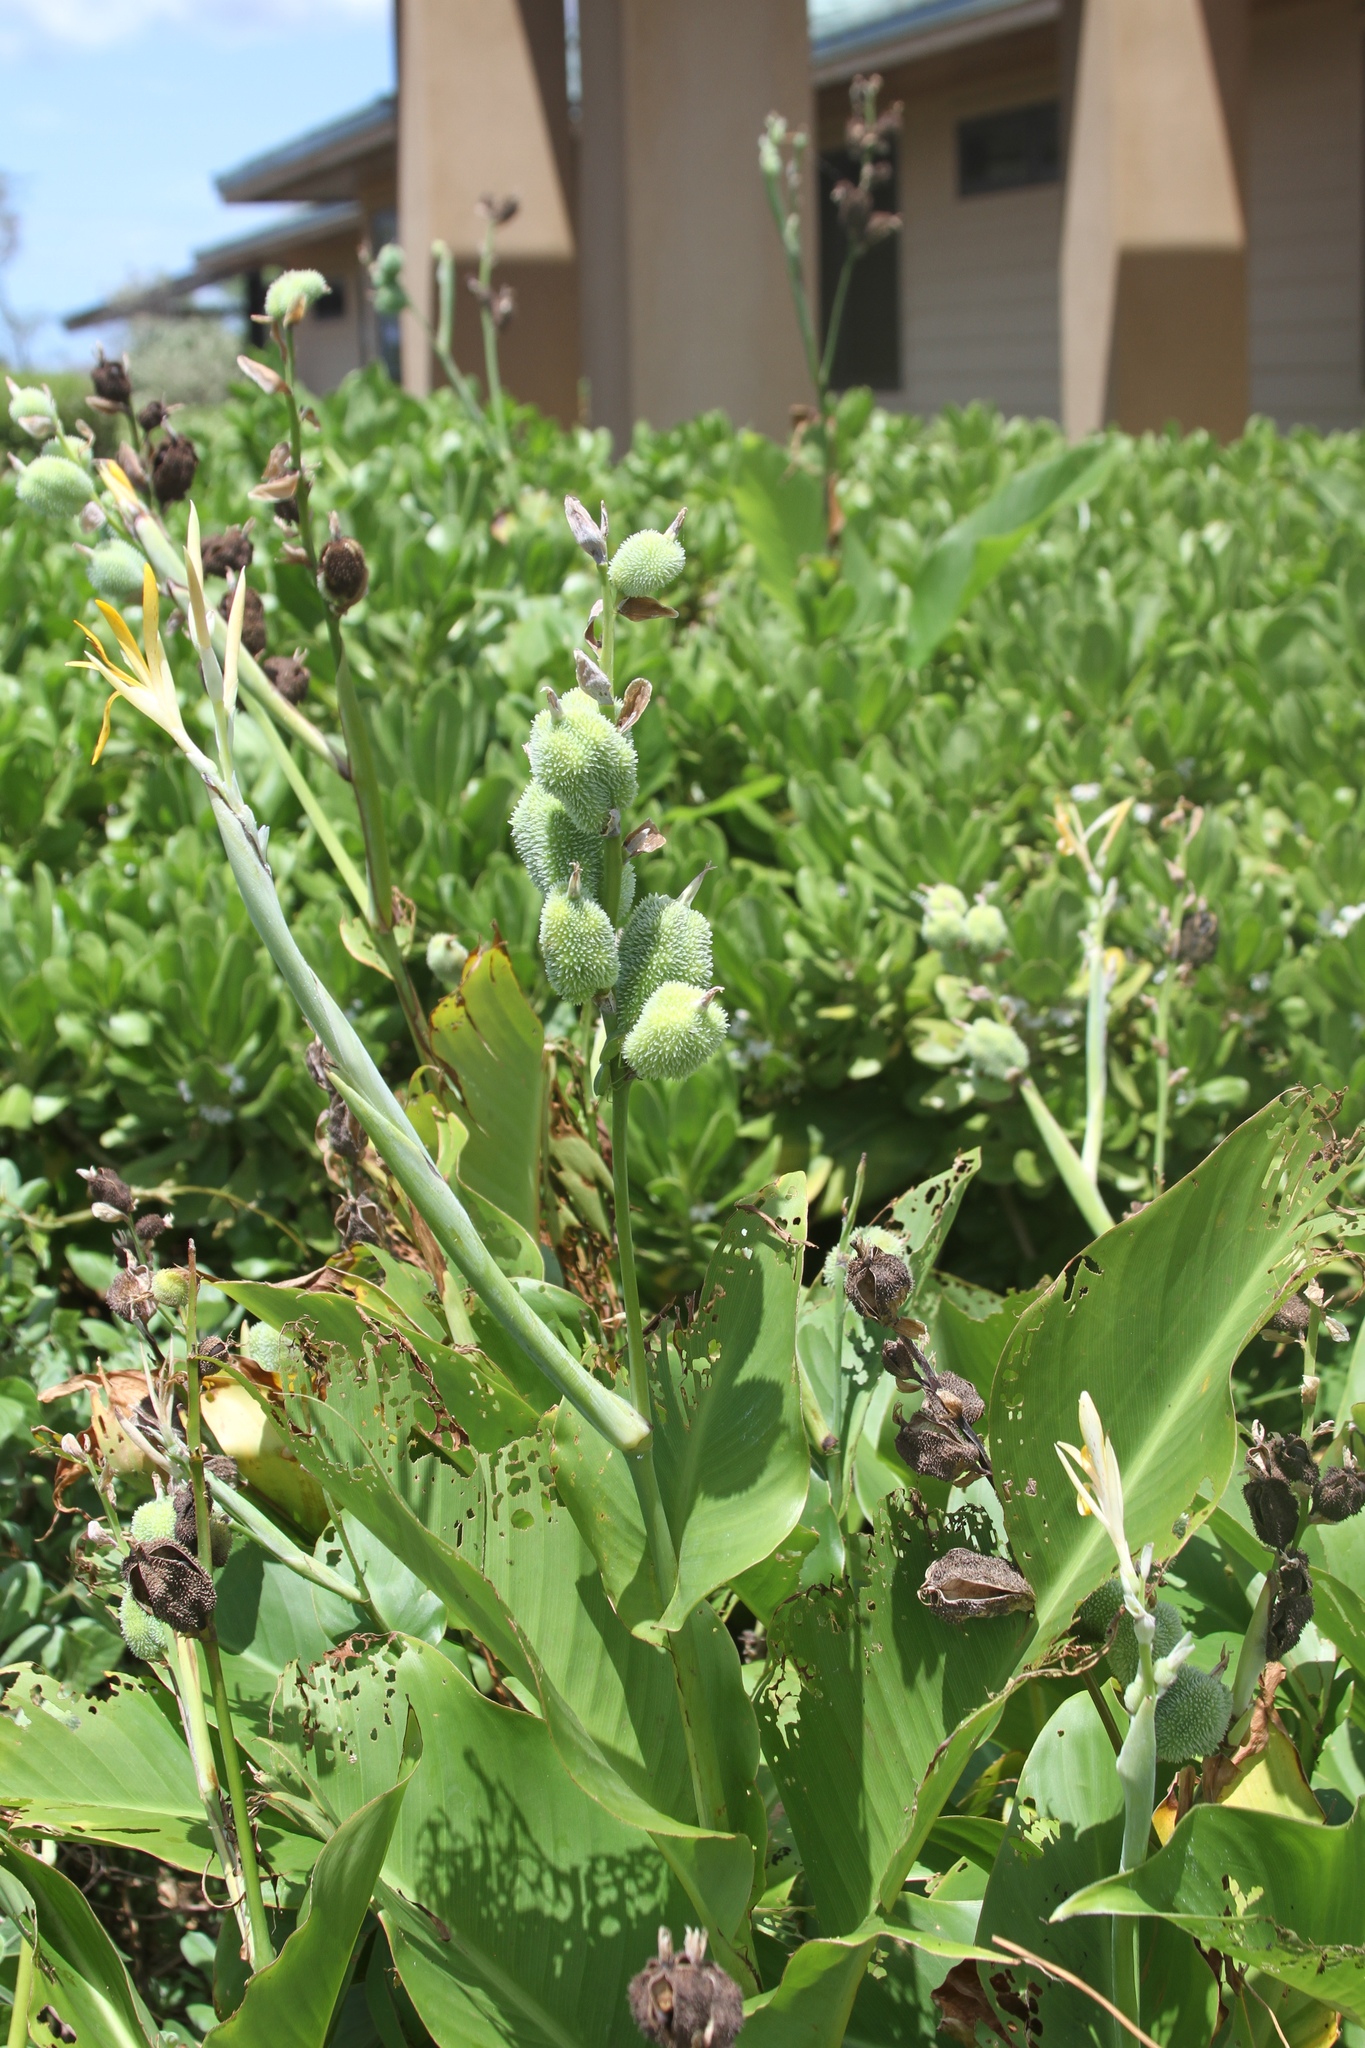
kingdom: Plantae
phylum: Tracheophyta
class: Liliopsida
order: Zingiberales
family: Cannaceae
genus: Canna
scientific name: Canna indica
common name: Indian shot
